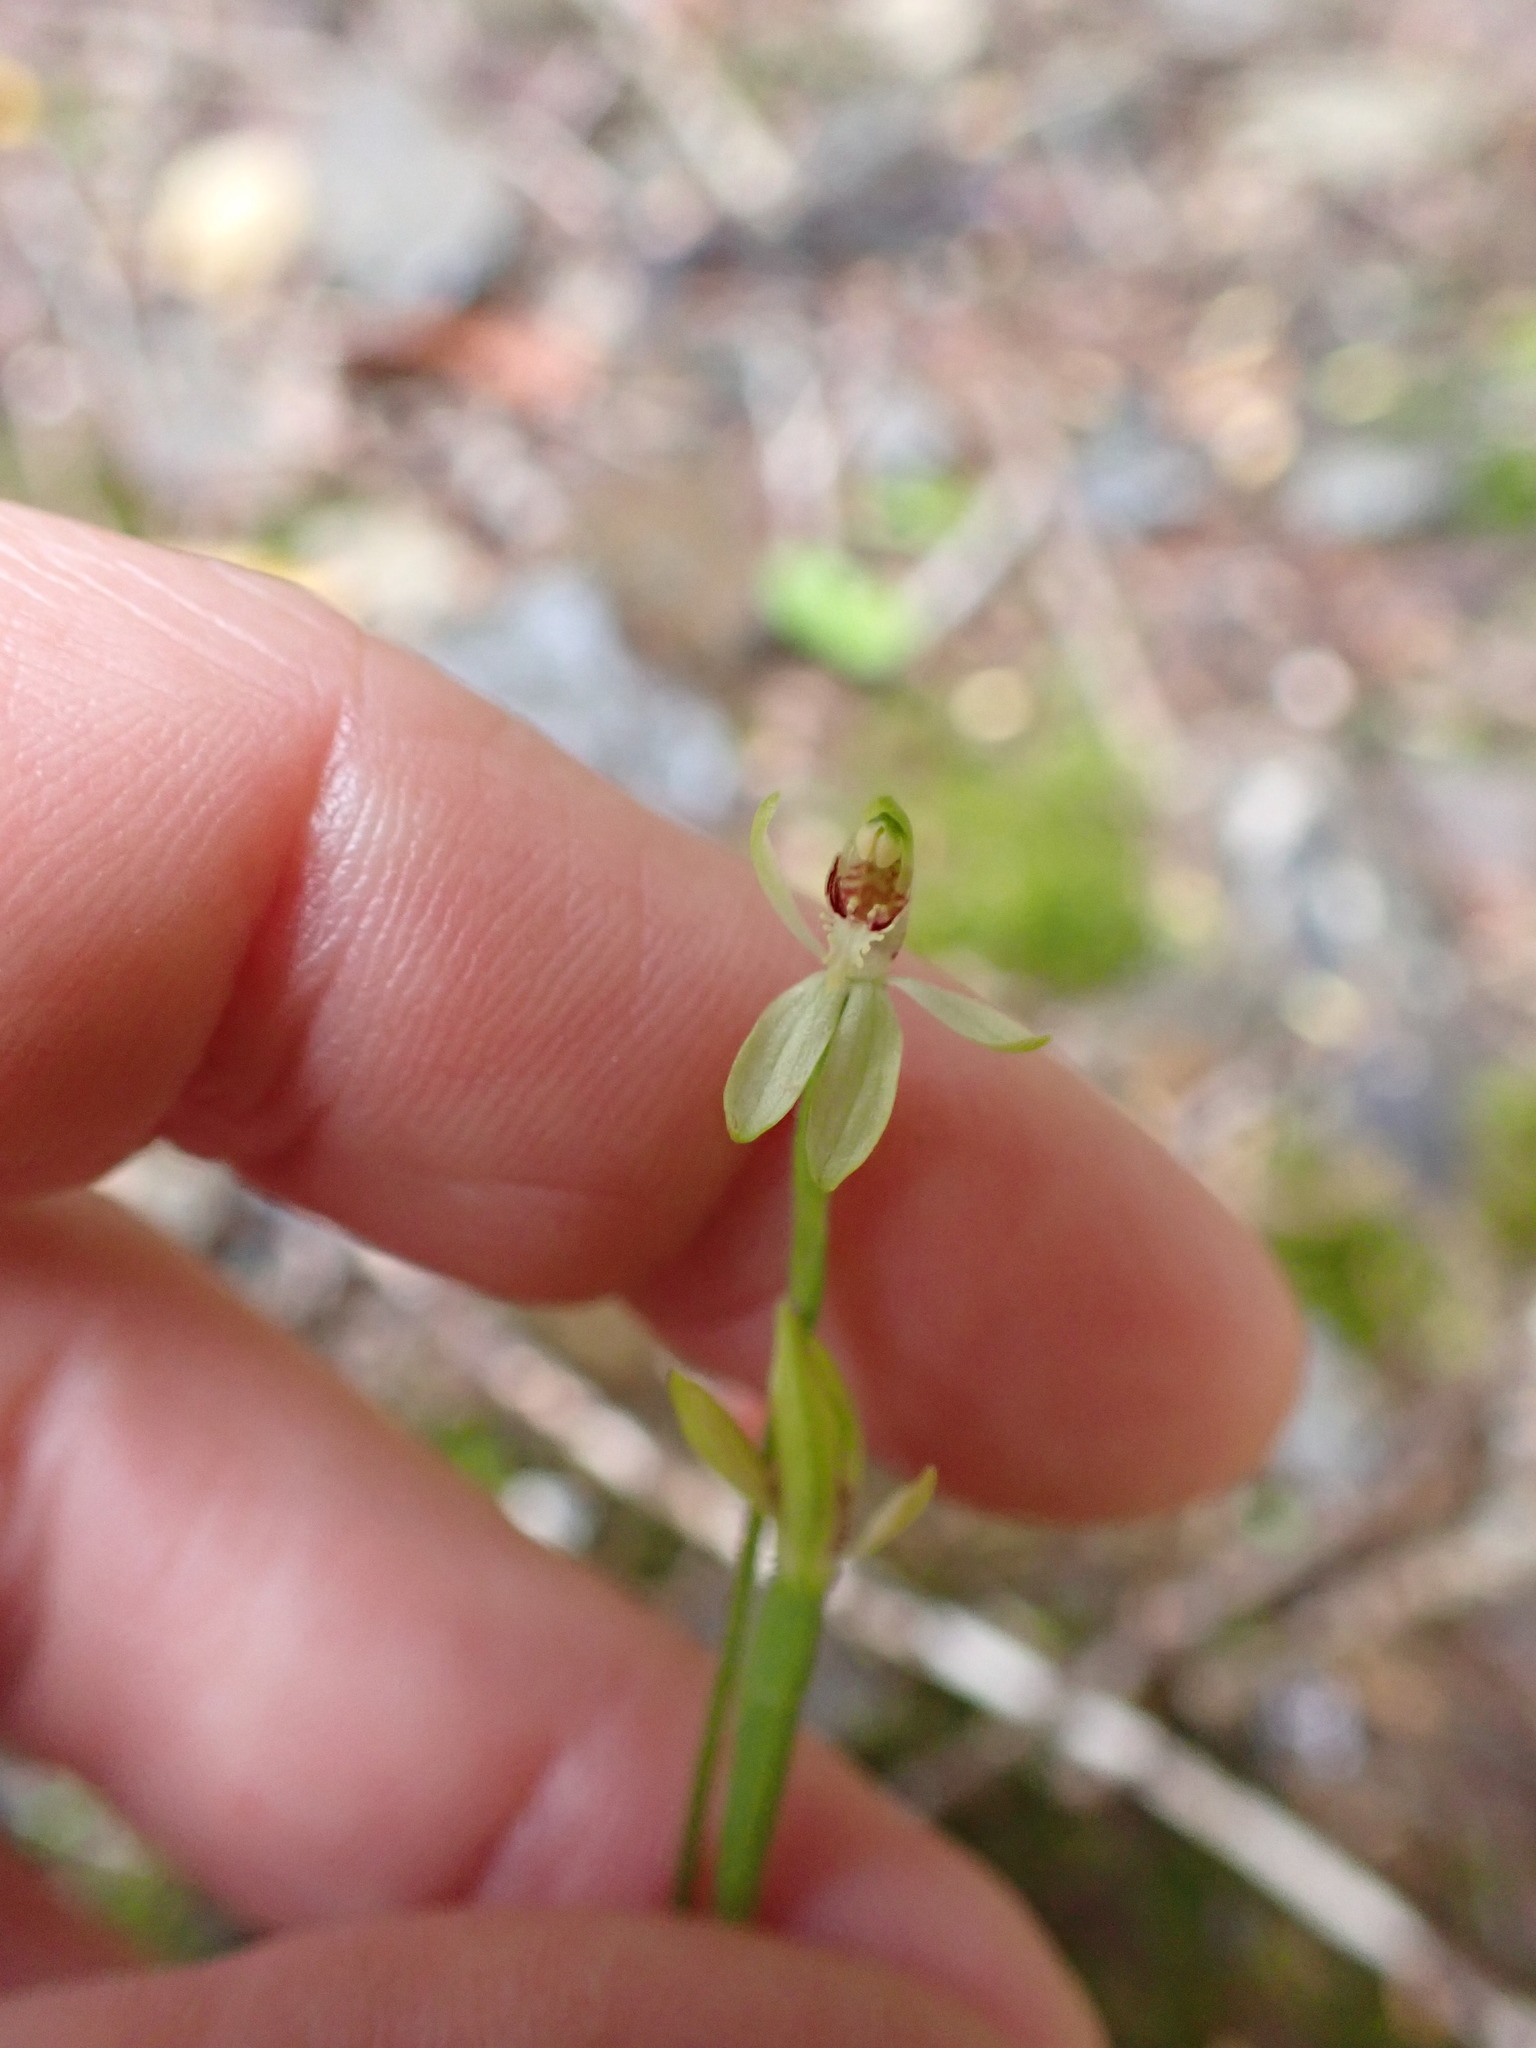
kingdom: Plantae
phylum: Tracheophyta
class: Liliopsida
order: Asparagales
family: Orchidaceae
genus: Caladenia
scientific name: Caladenia chlorostyla
